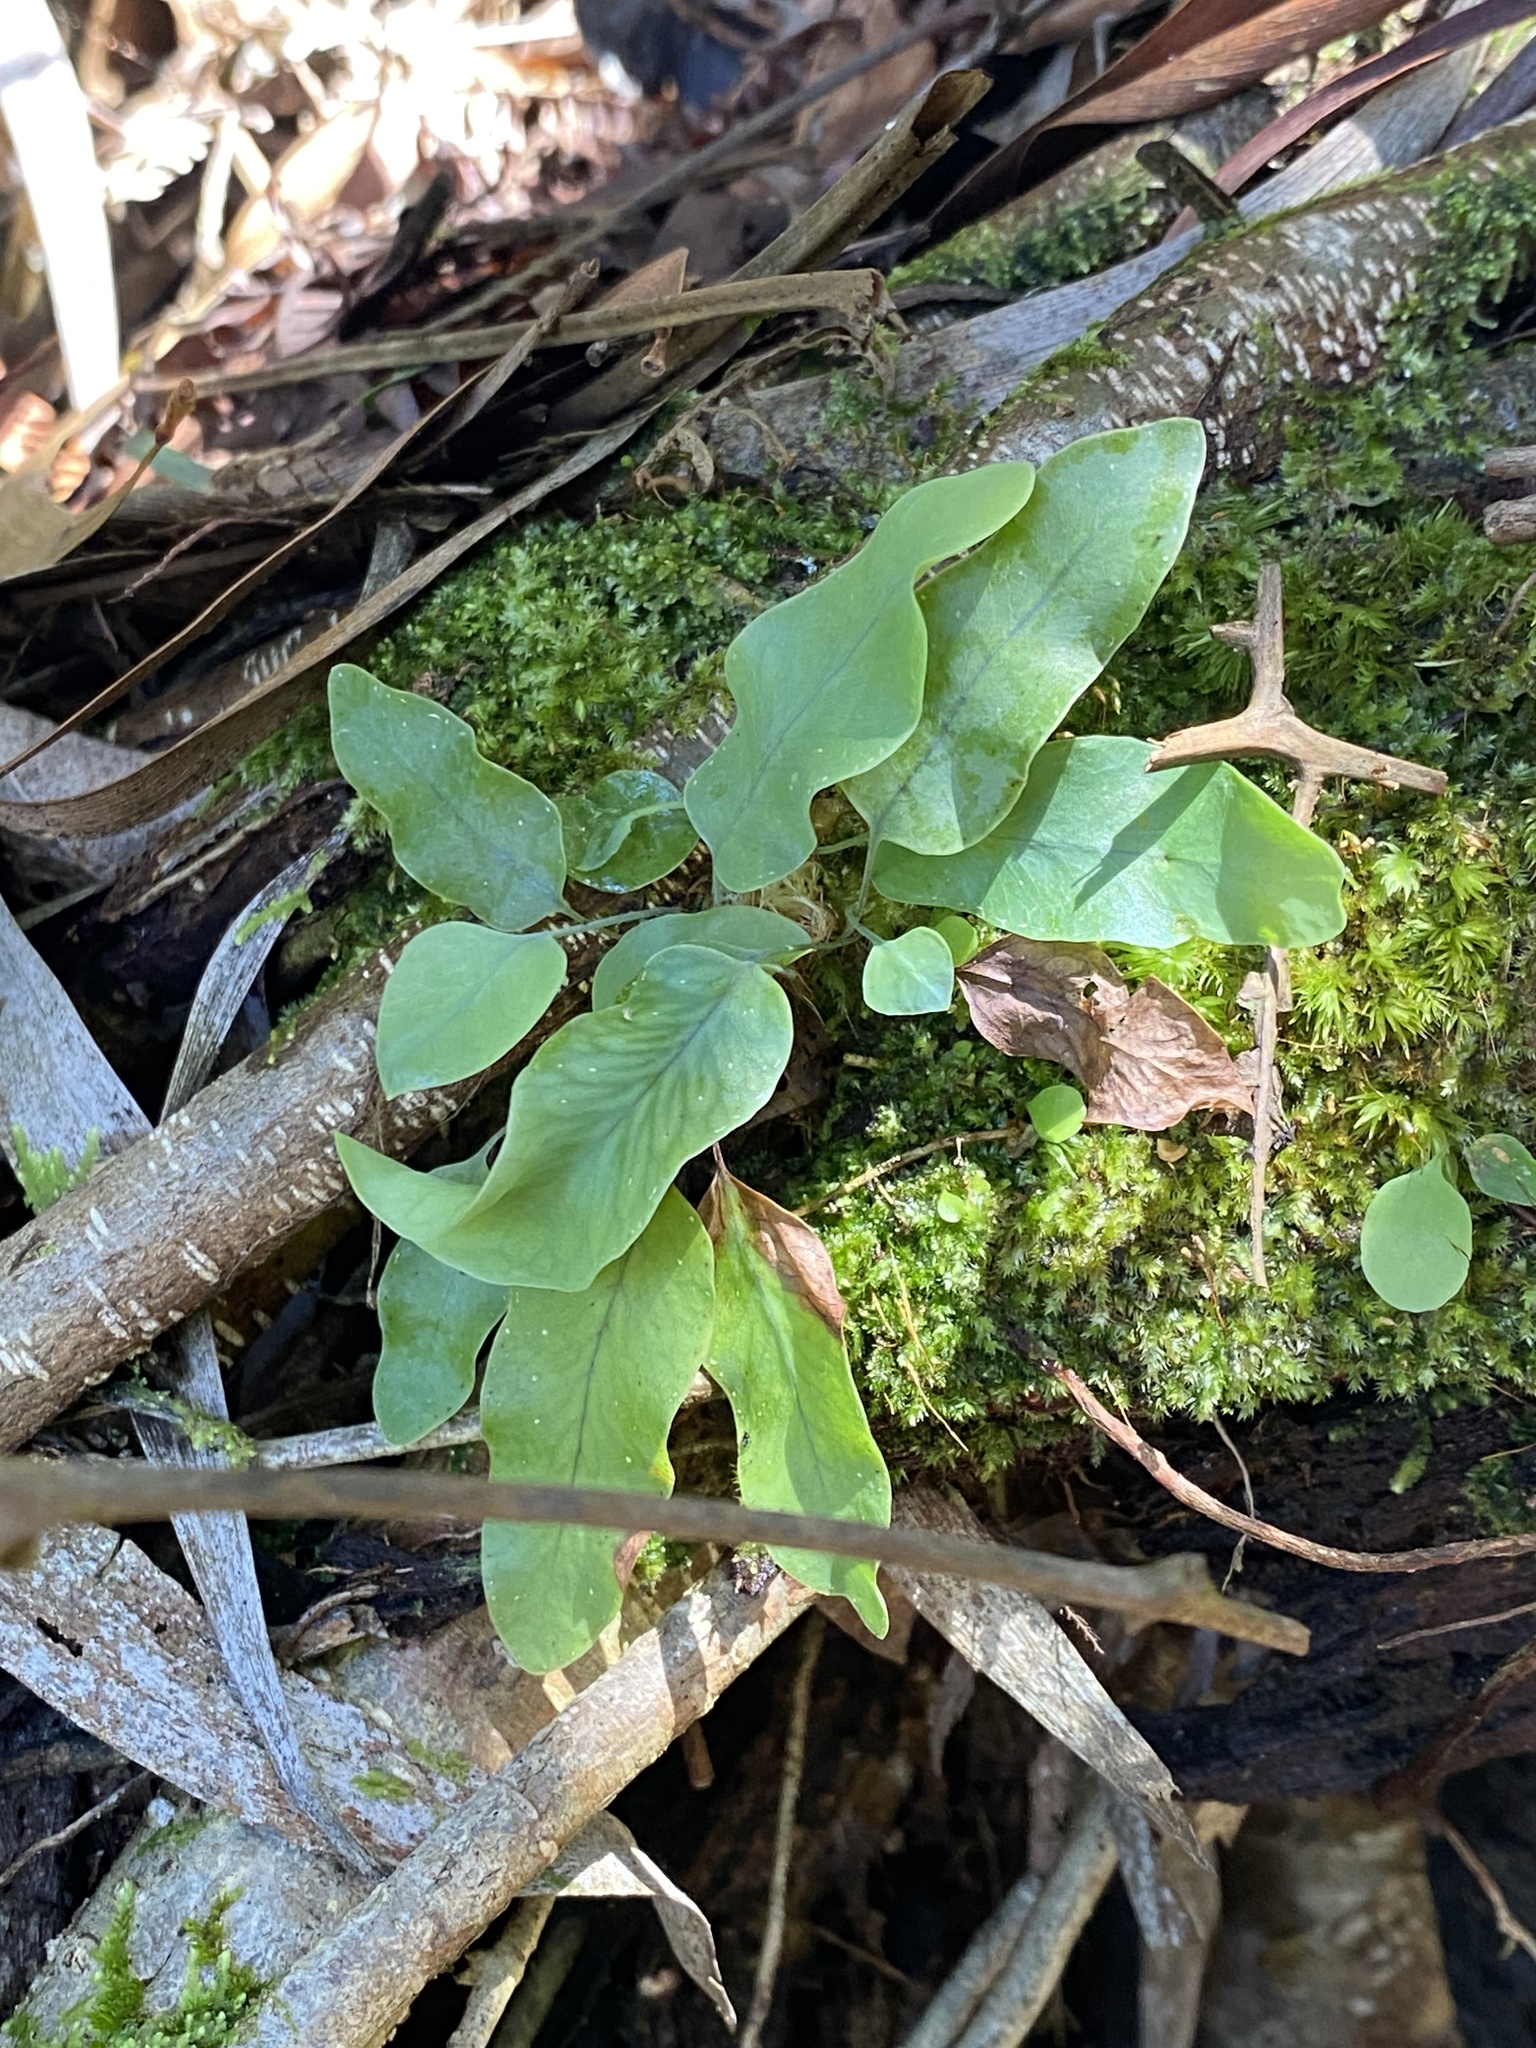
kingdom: Plantae
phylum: Tracheophyta
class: Polypodiopsida
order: Polypodiales
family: Polypodiaceae
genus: Phlebodium
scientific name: Phlebodium aureum
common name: Gold-foot fern
